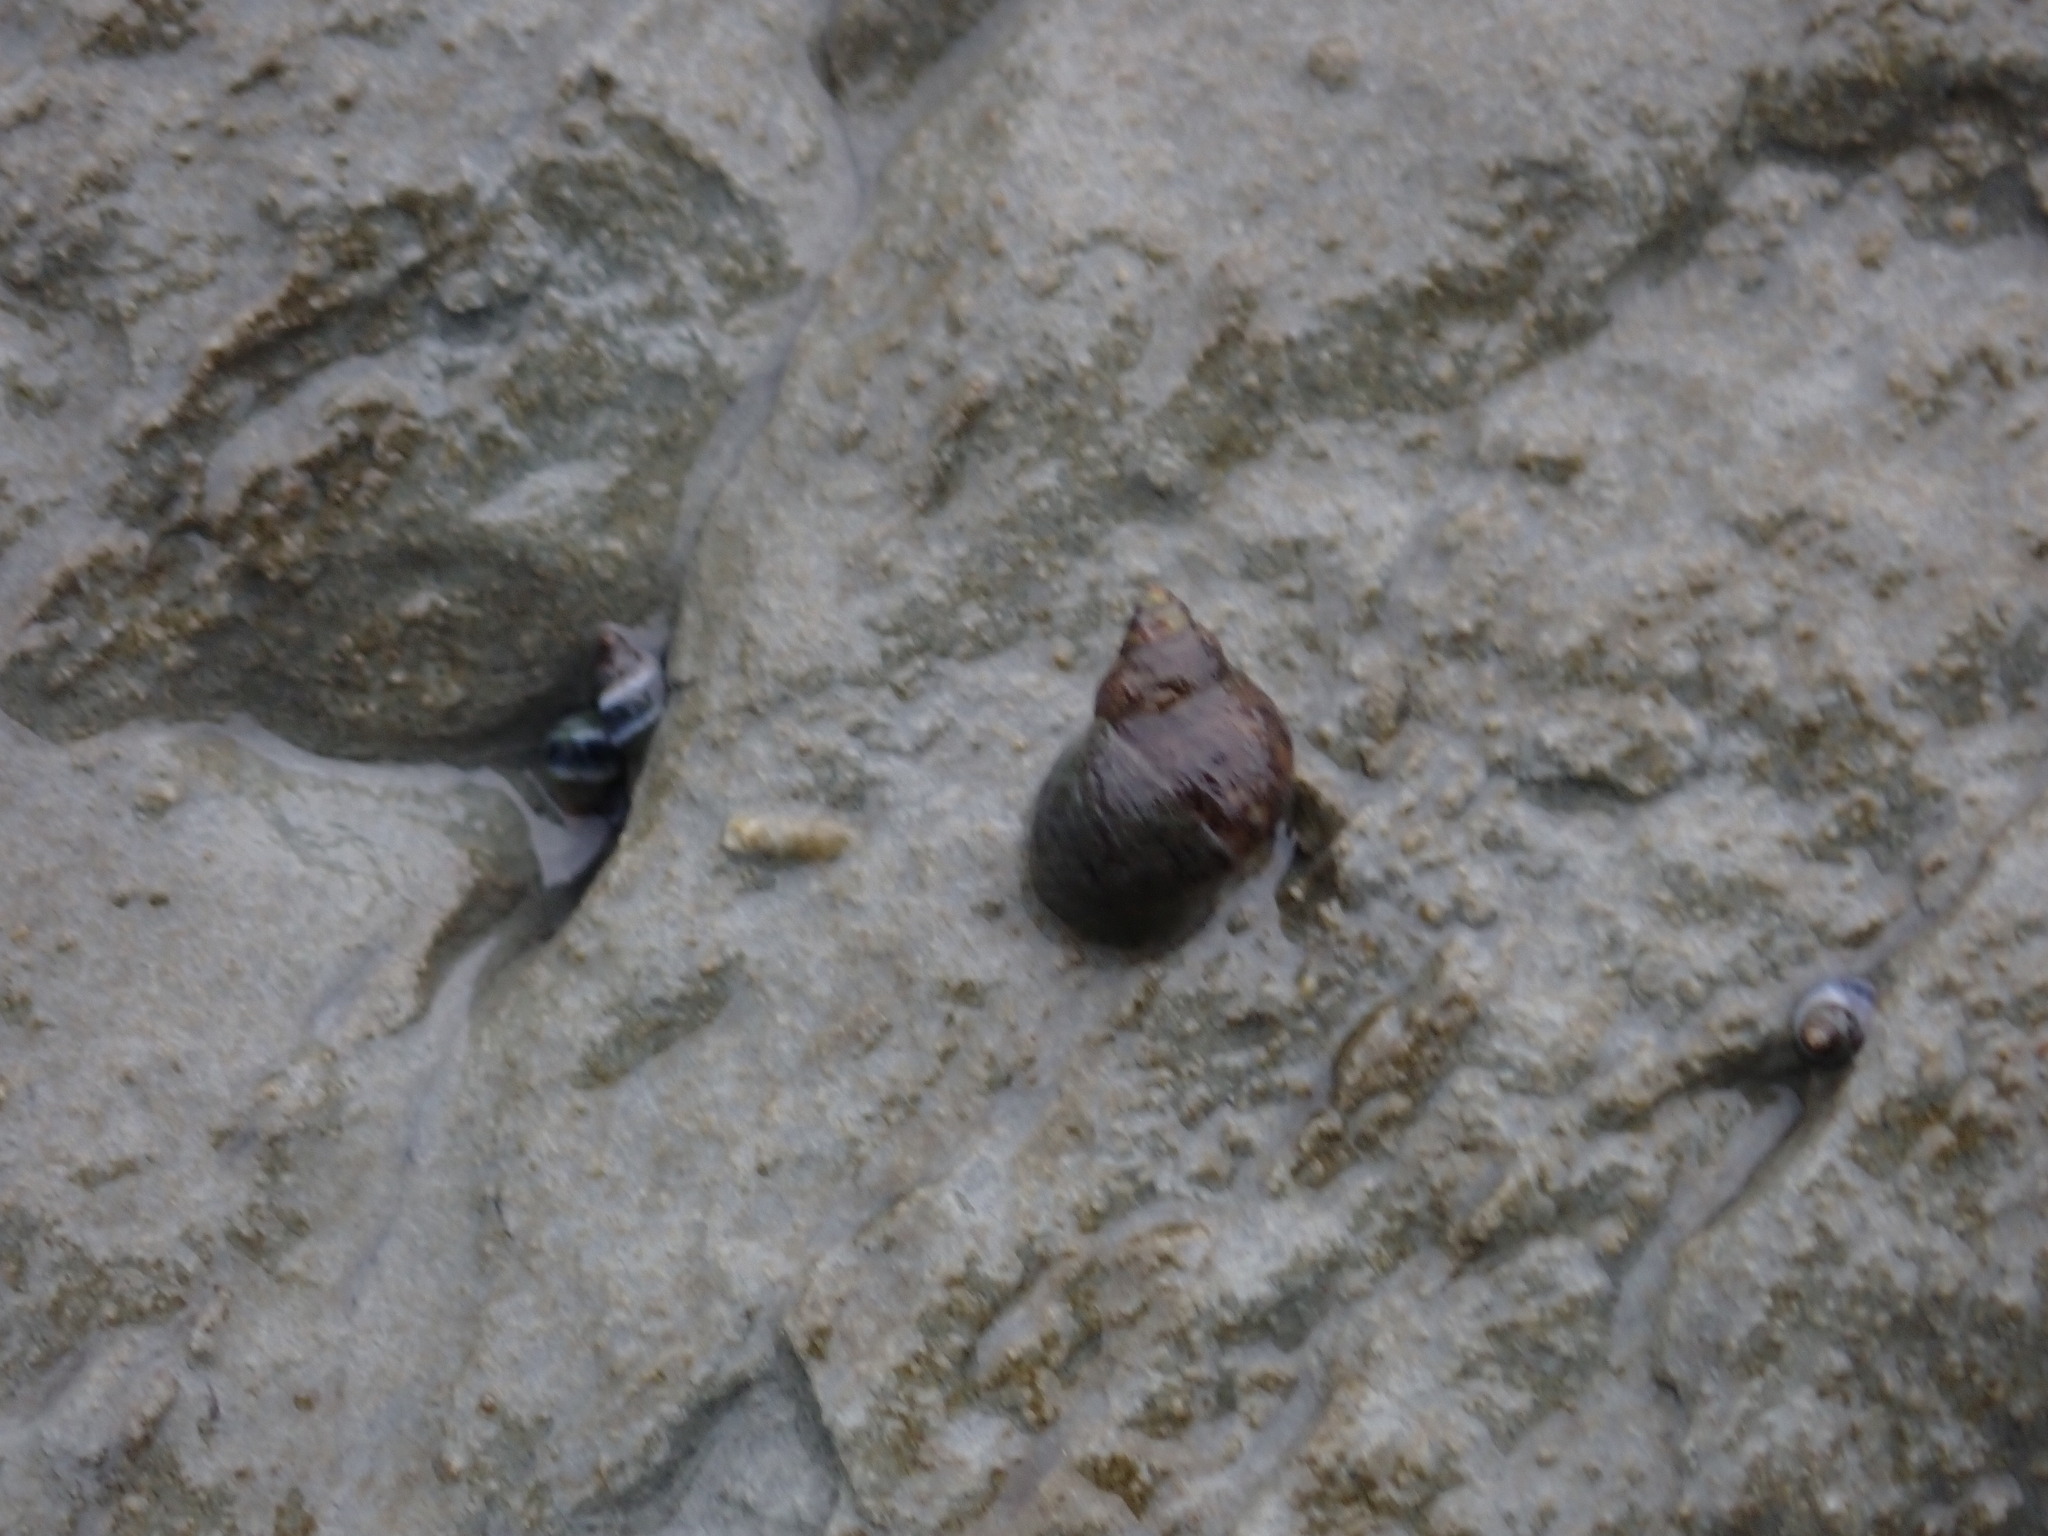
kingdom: Animalia
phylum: Mollusca
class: Gastropoda
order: Littorinimorpha
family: Littorinidae
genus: Austrolittorina
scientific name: Austrolittorina cincta
